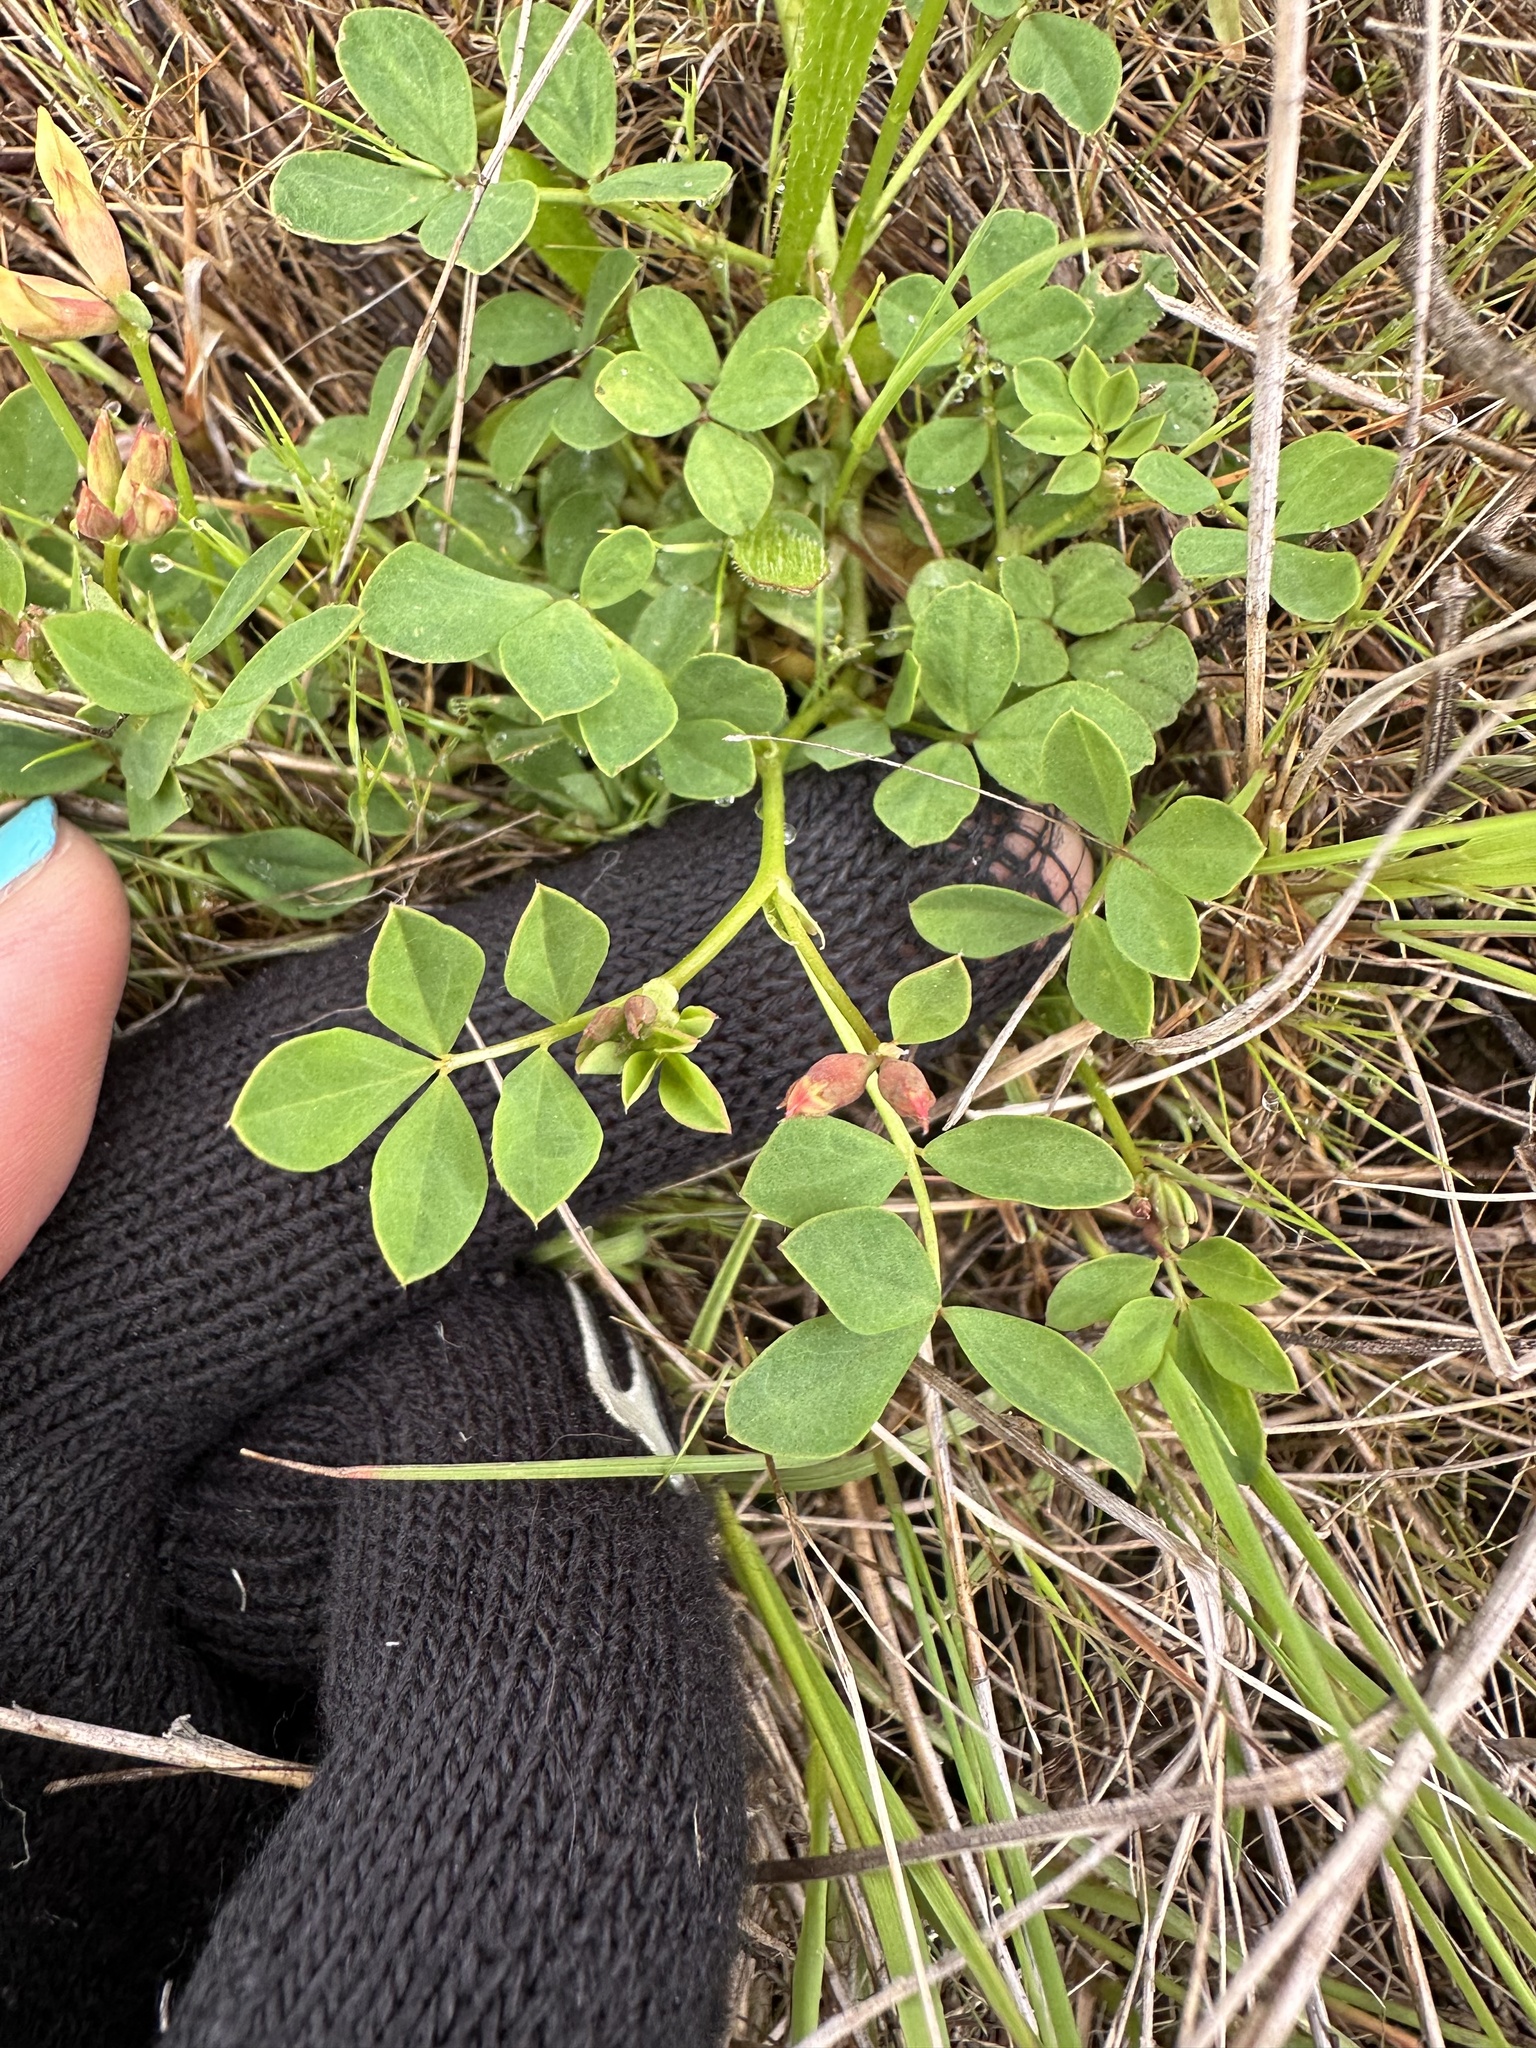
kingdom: Plantae
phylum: Tracheophyta
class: Magnoliopsida
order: Fabales
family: Fabaceae
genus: Hosackia
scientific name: Hosackia gracilis
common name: Seaside bird's-foot lotus
